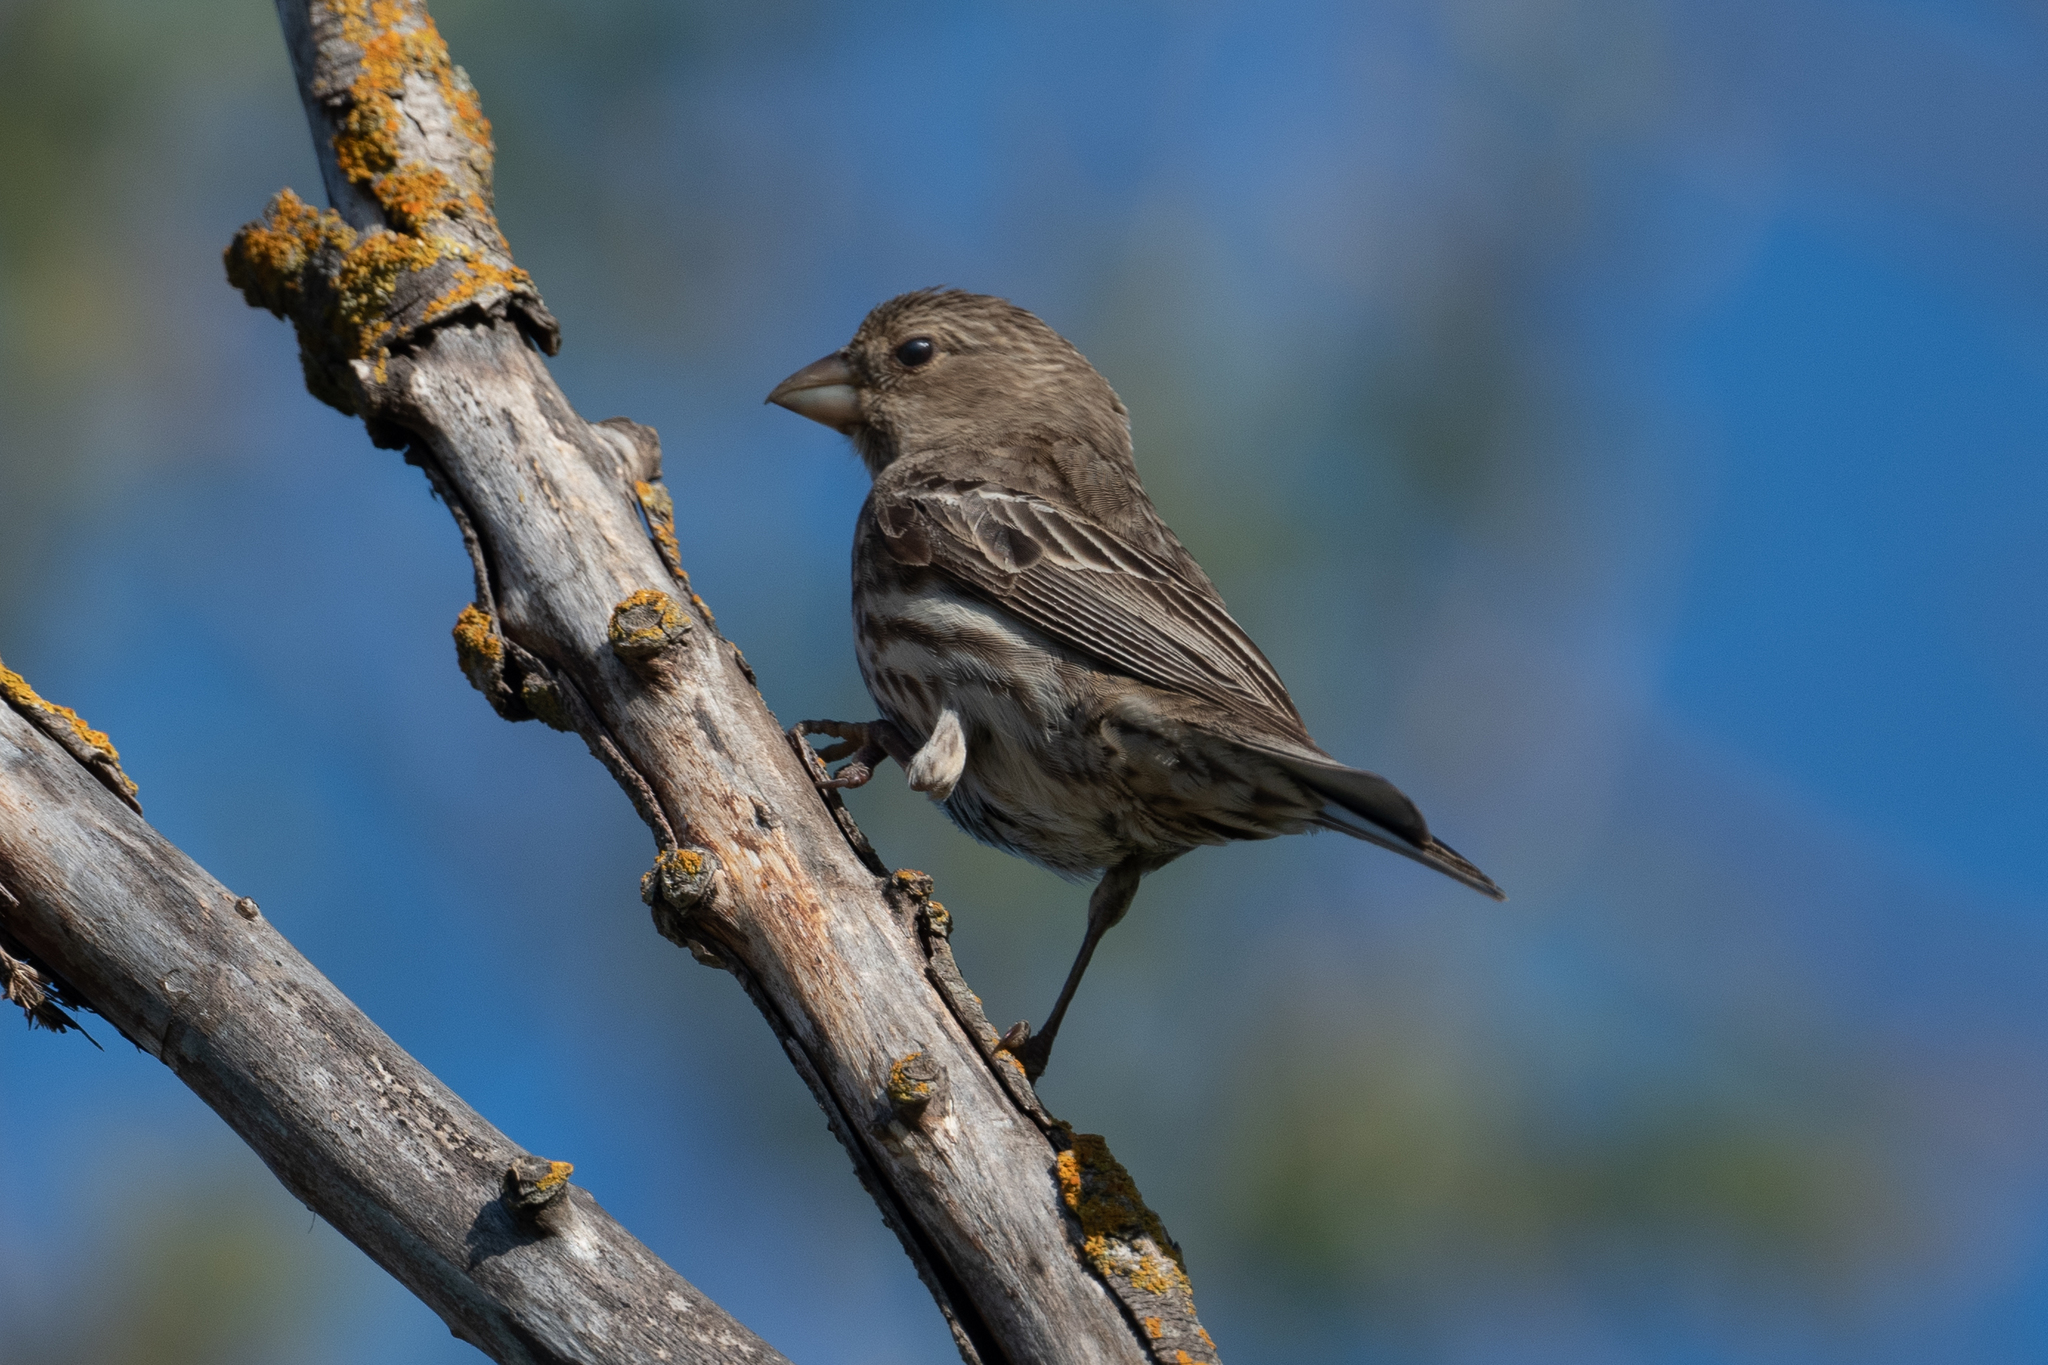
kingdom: Animalia
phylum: Chordata
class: Aves
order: Passeriformes
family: Fringillidae
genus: Haemorhous
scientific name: Haemorhous mexicanus
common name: House finch
